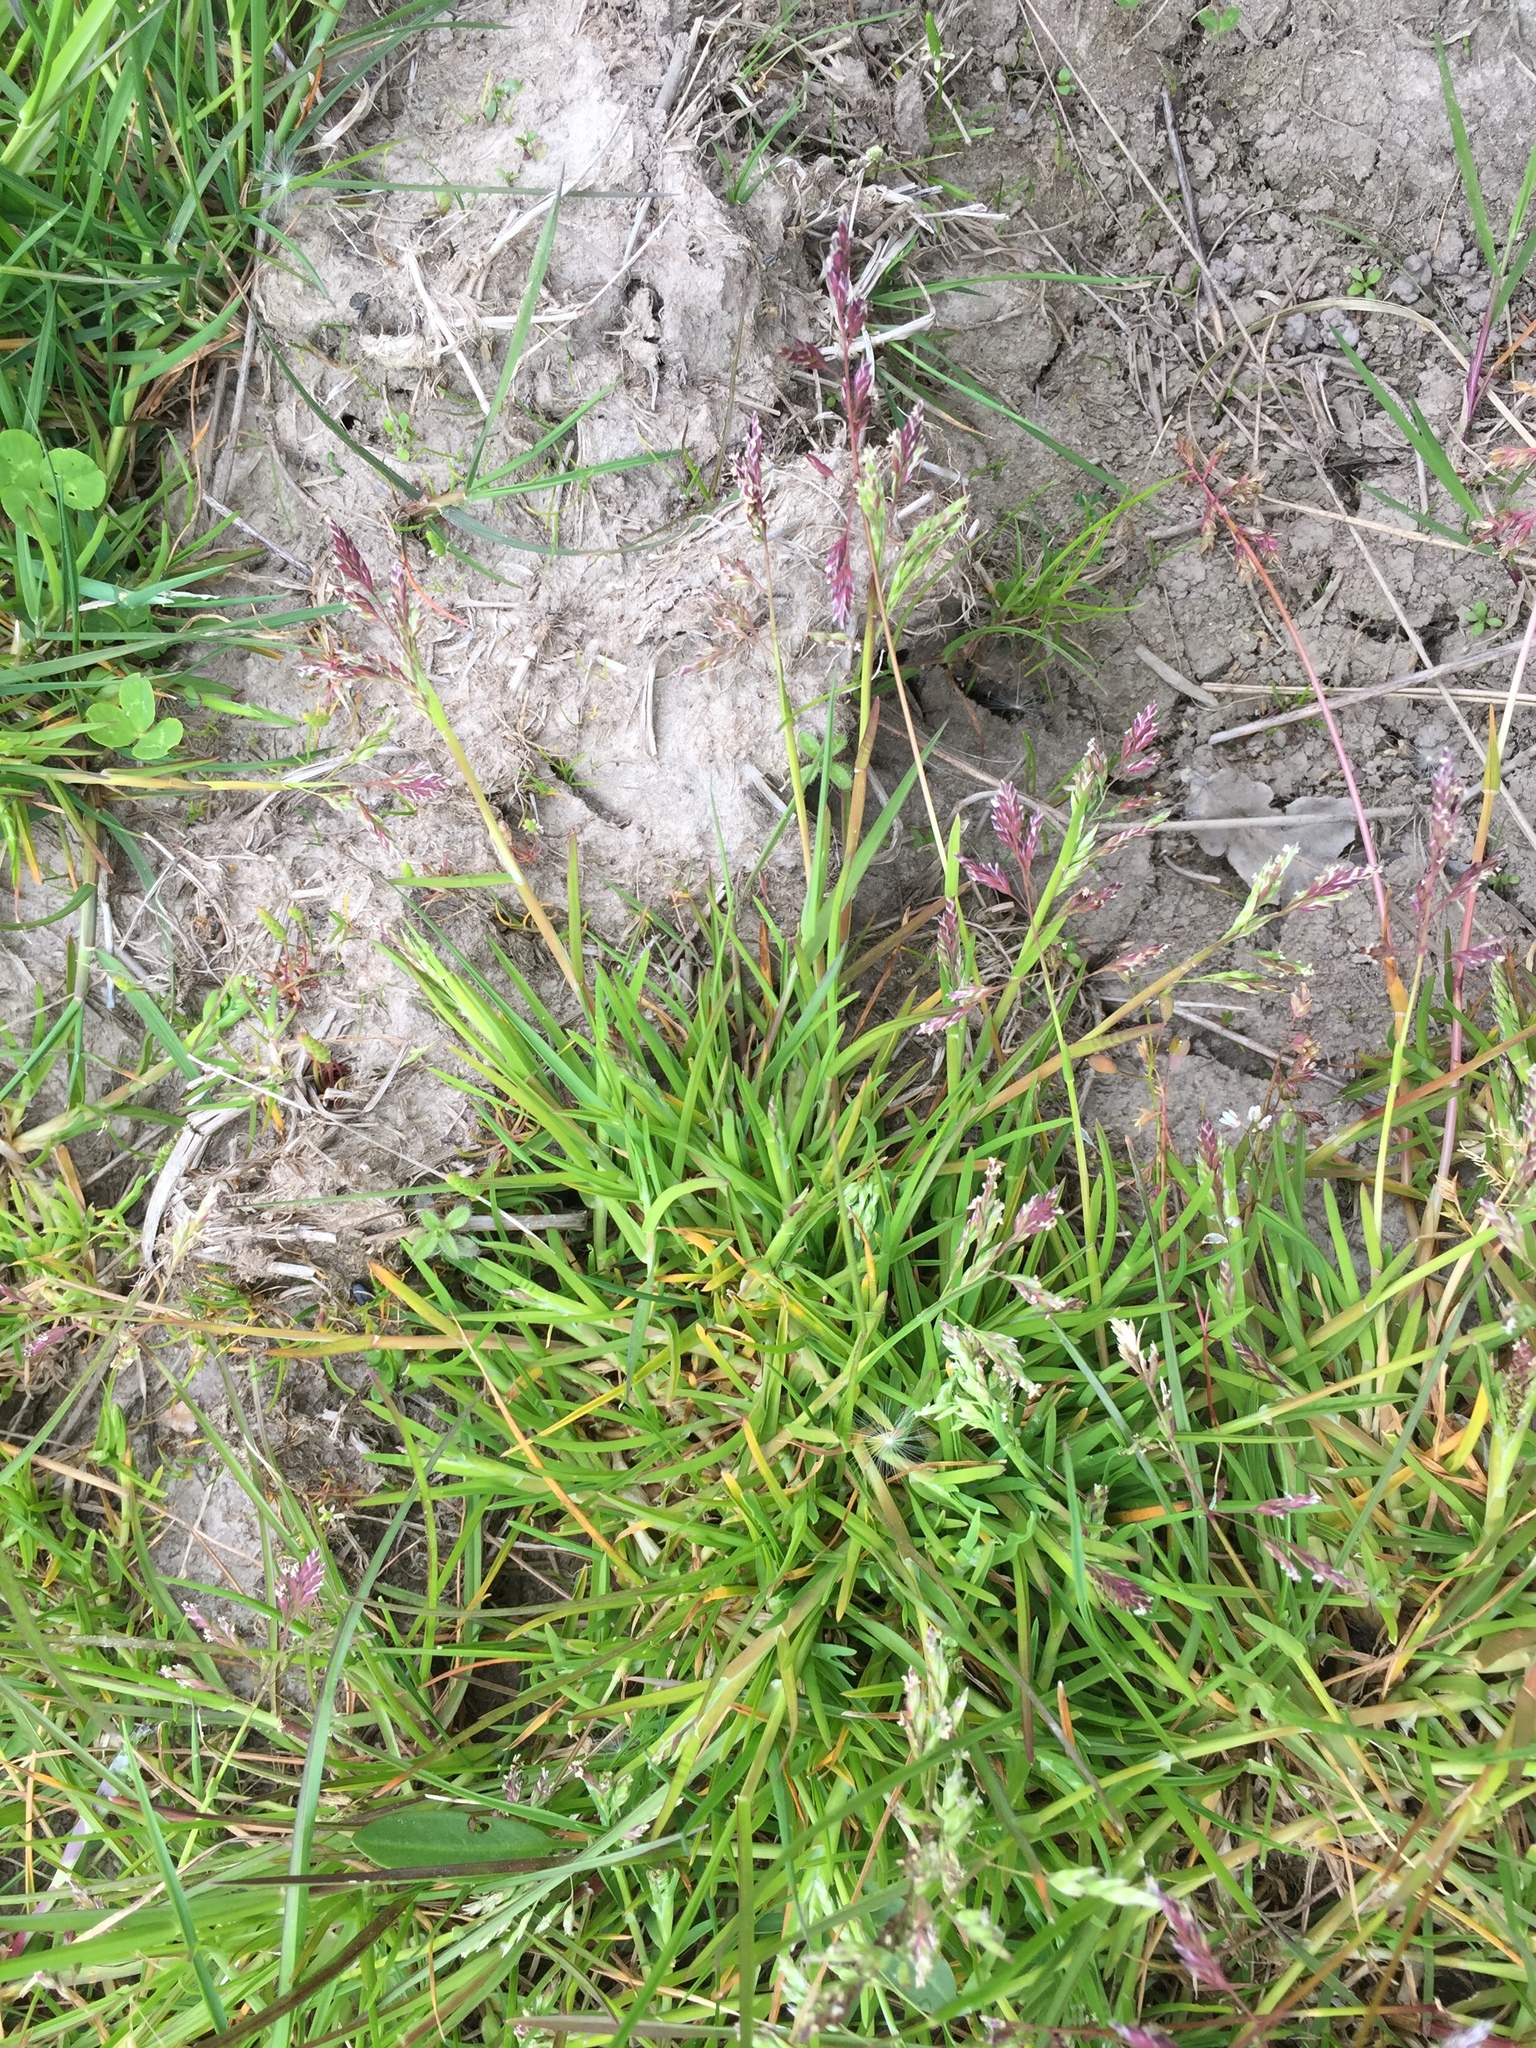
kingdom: Plantae
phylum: Tracheophyta
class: Liliopsida
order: Poales
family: Poaceae
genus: Poa
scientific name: Poa annua
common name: Annual bluegrass
